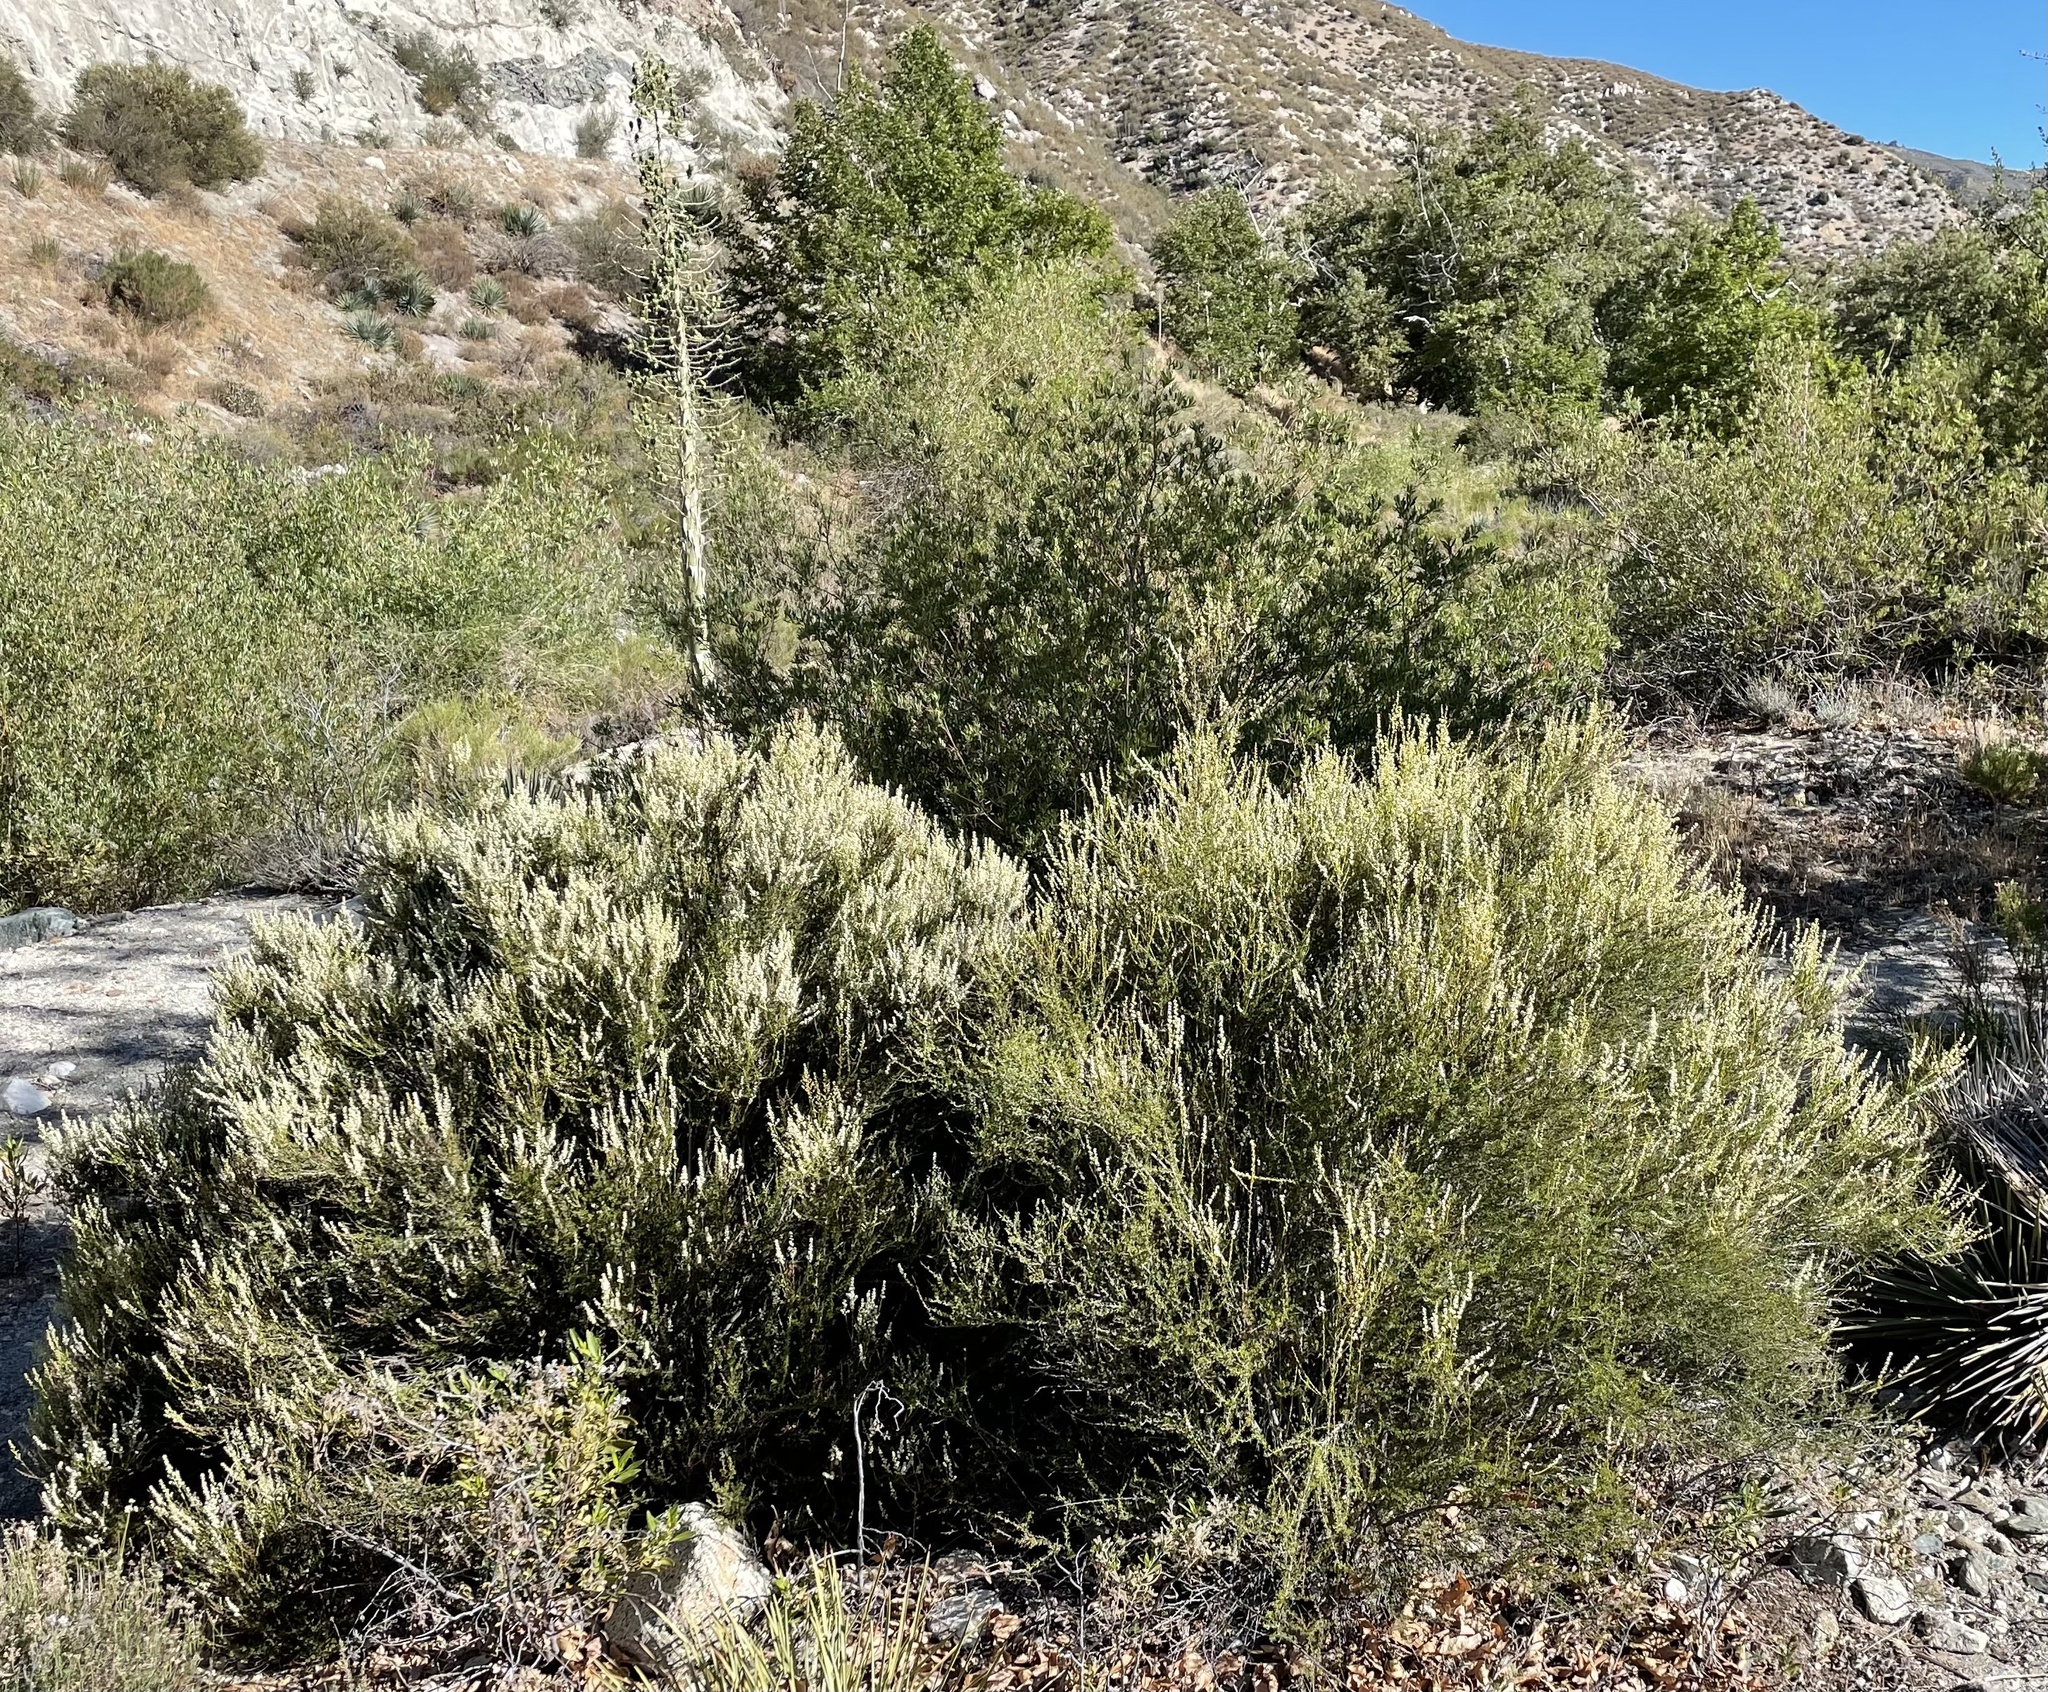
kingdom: Plantae
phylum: Tracheophyta
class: Magnoliopsida
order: Rosales
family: Rosaceae
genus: Adenostoma
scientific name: Adenostoma fasciculatum
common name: Chamise
